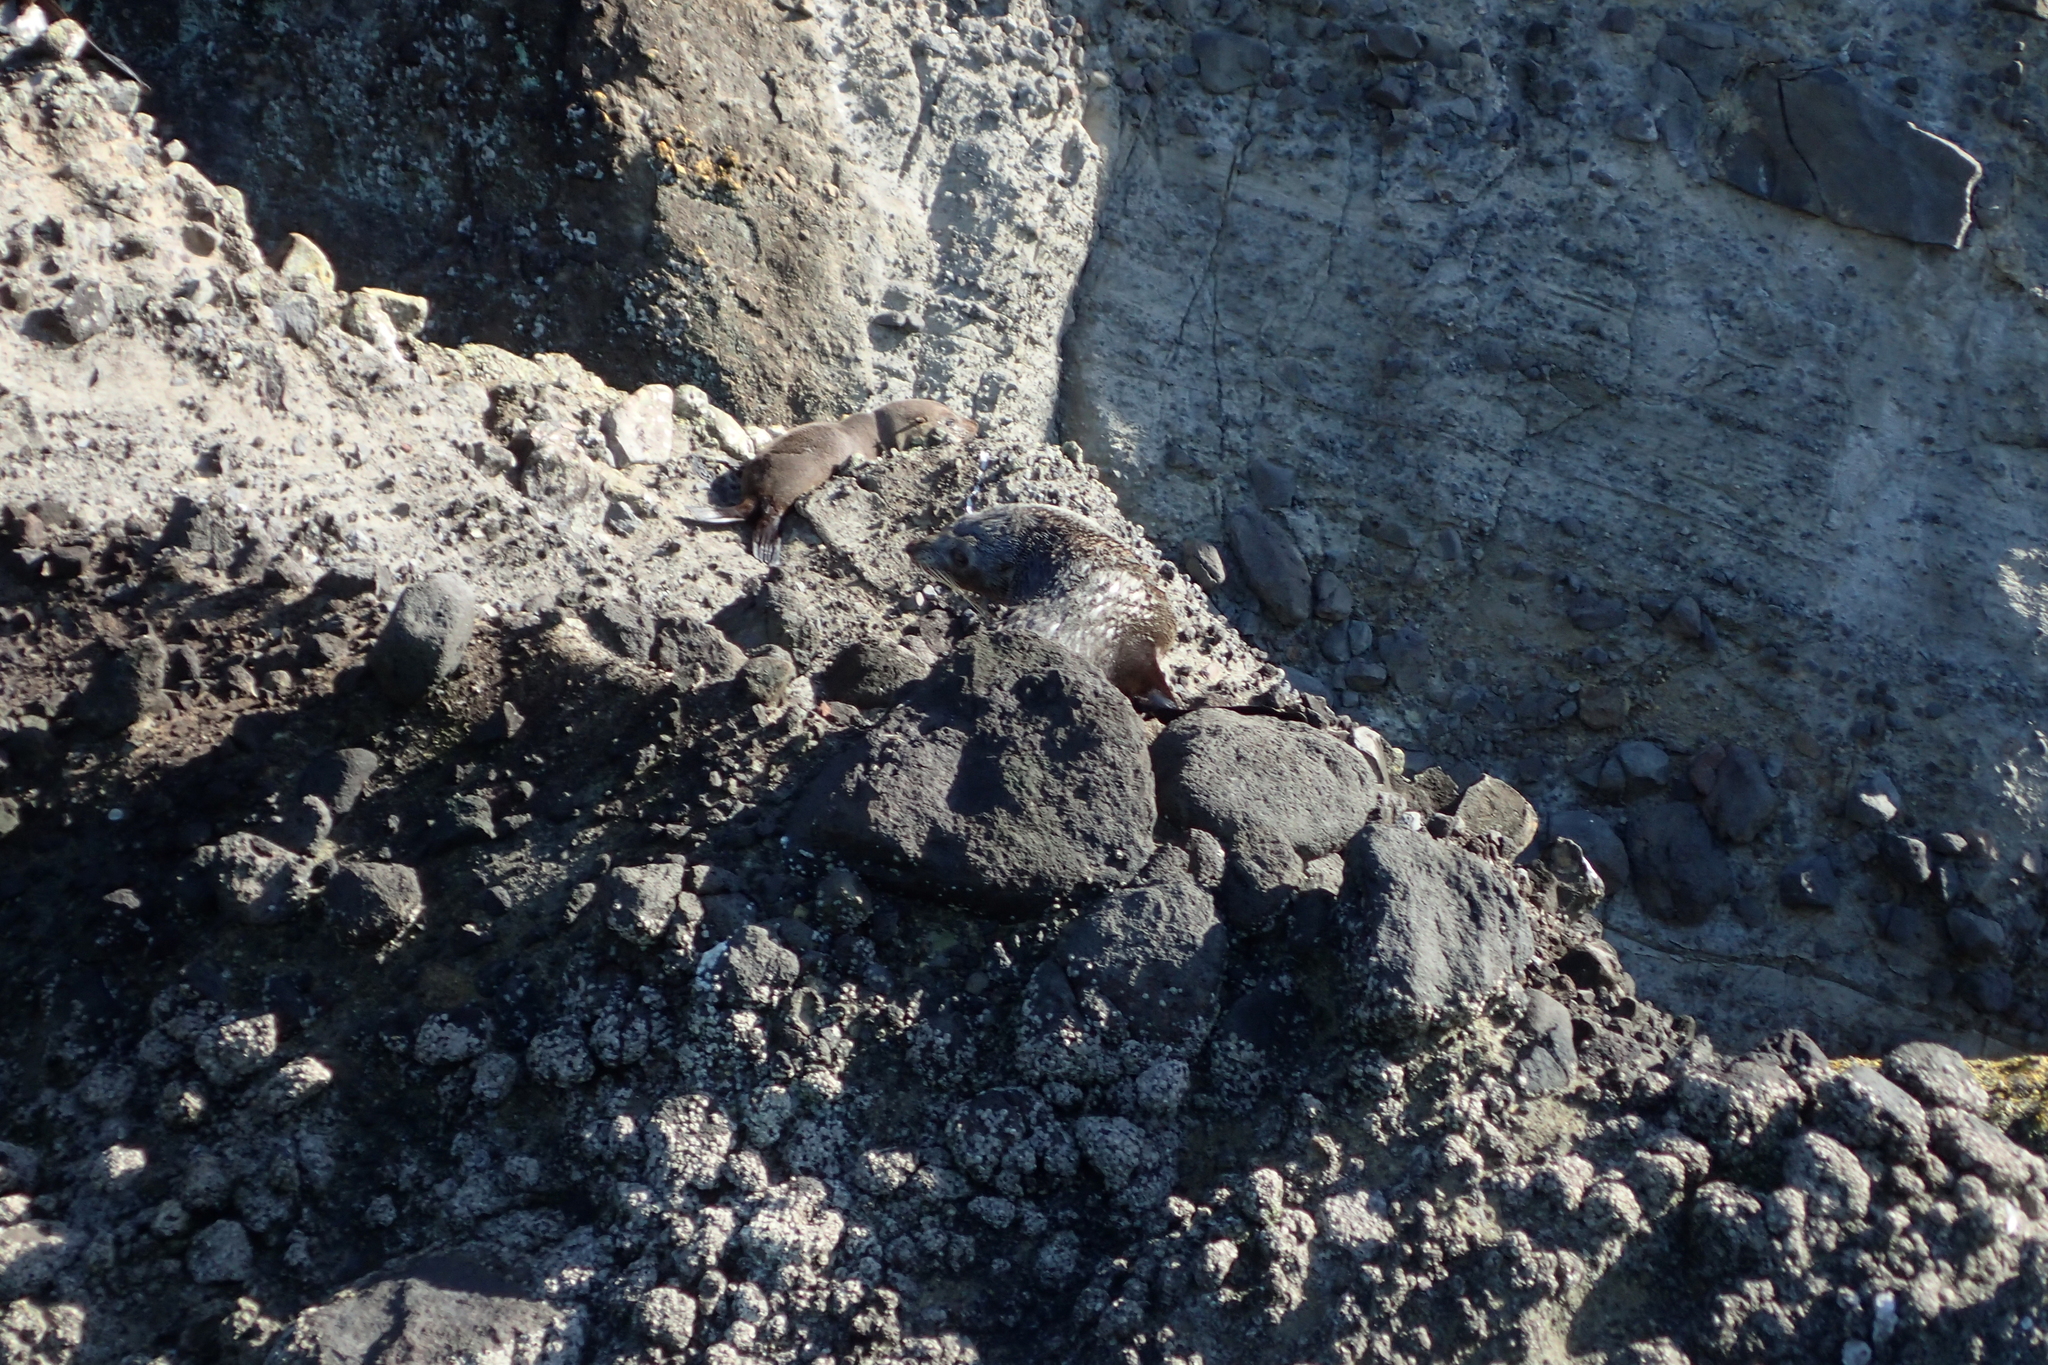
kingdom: Animalia
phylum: Chordata
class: Mammalia
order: Carnivora
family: Otariidae
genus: Arctocephalus
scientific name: Arctocephalus forsteri
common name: New zealand fur seal
